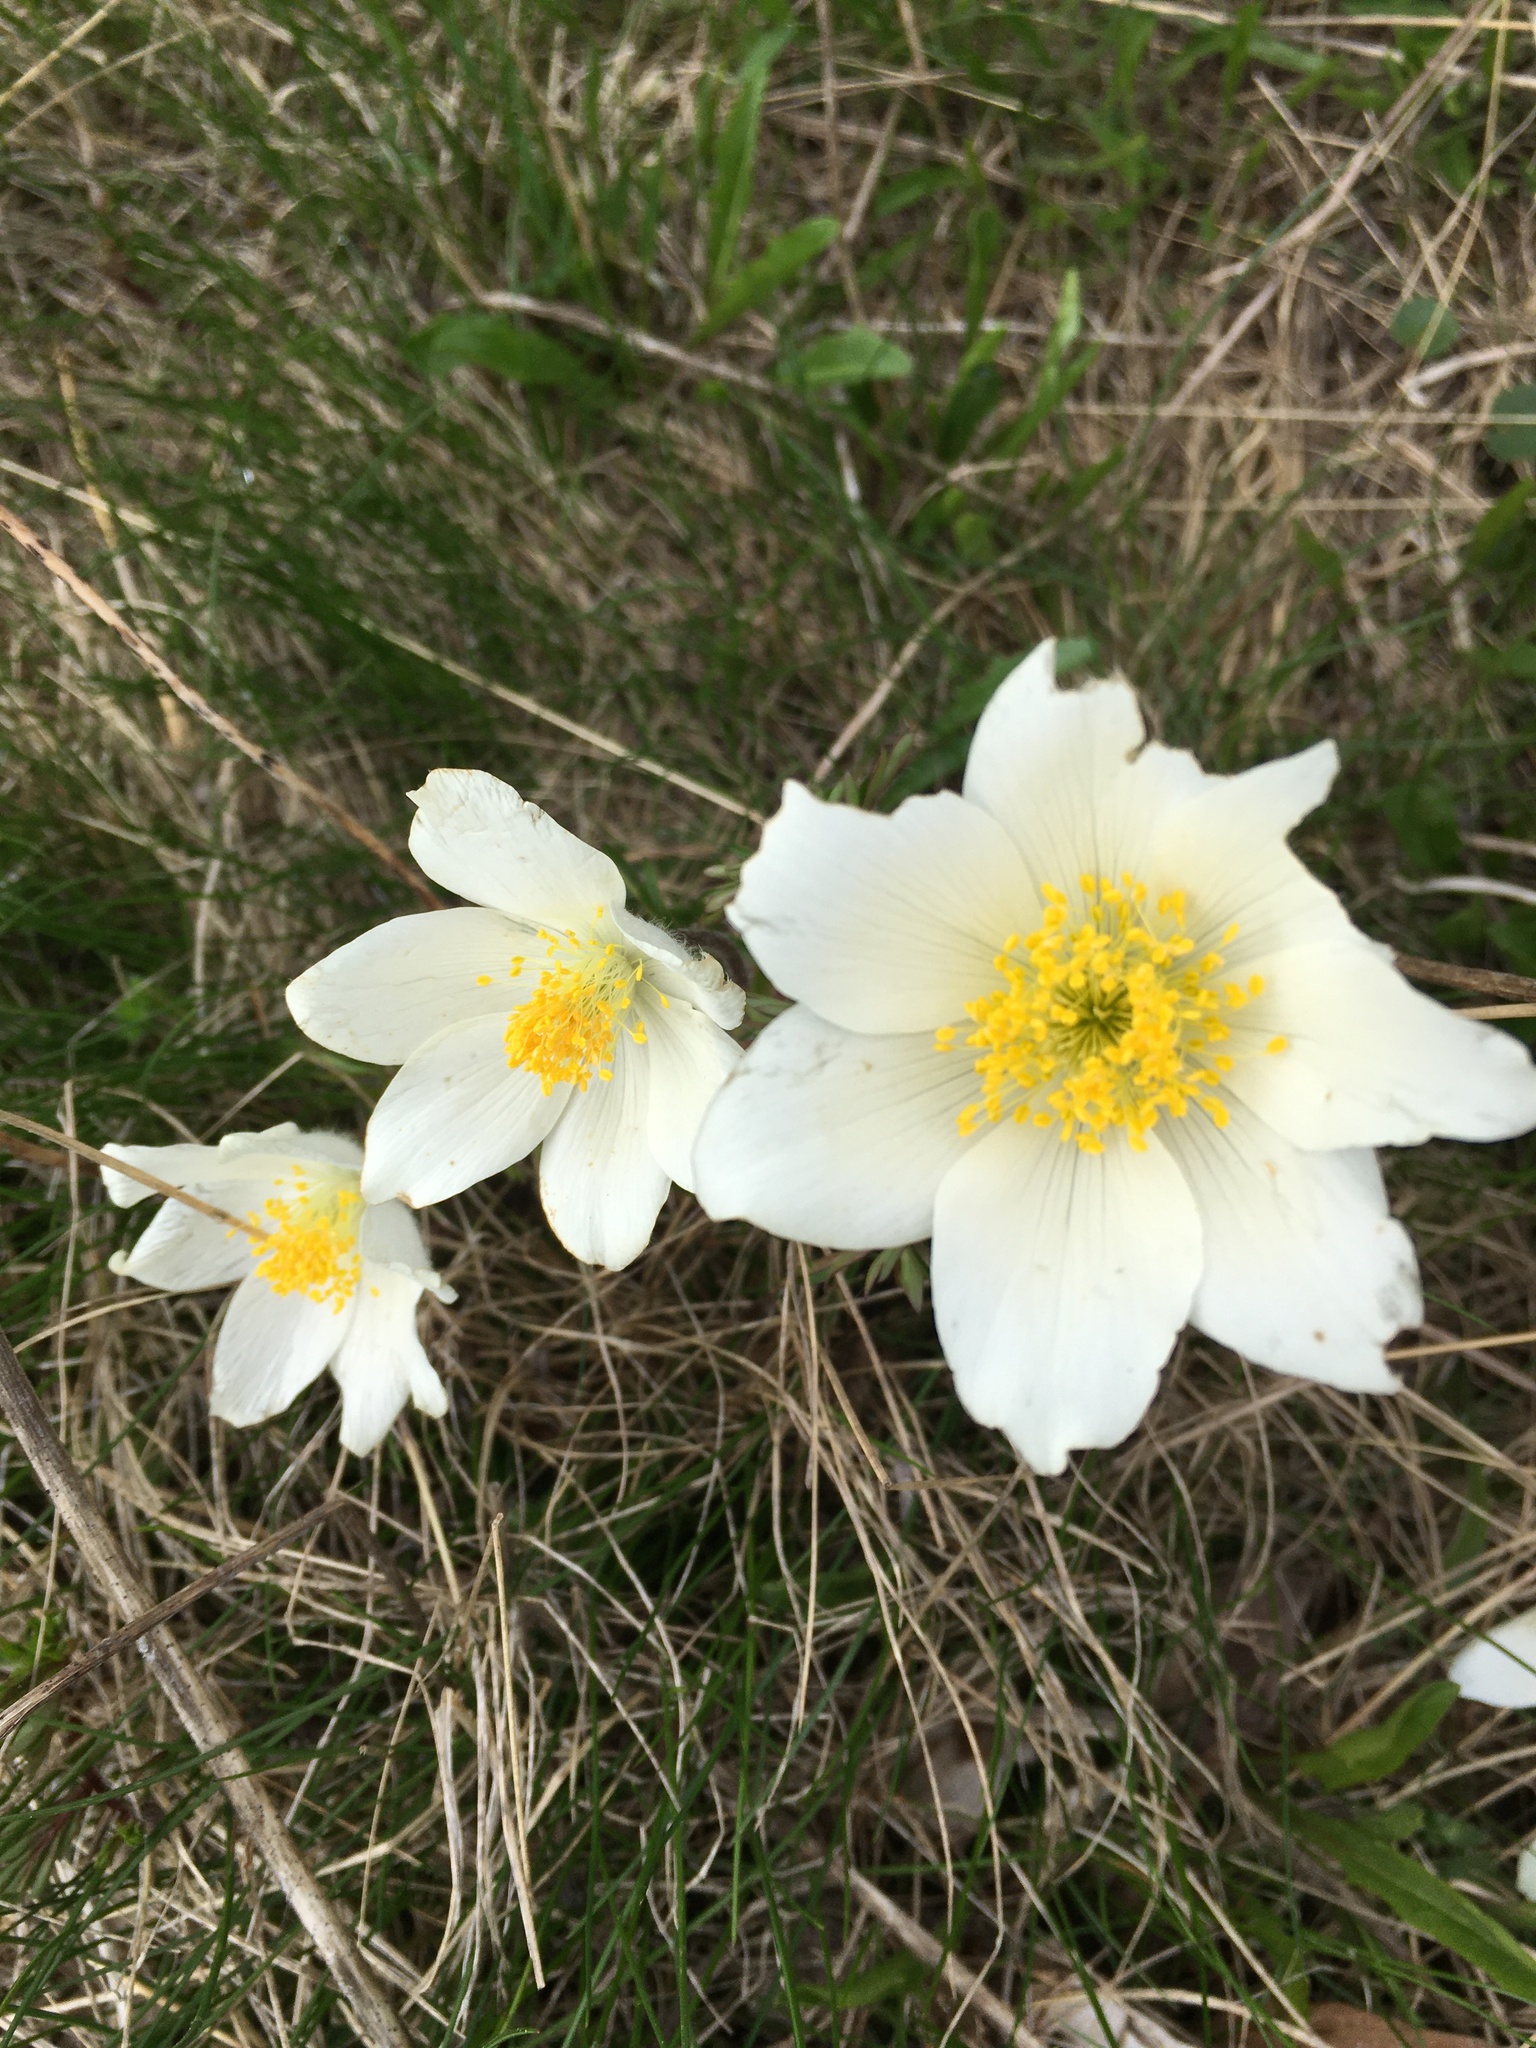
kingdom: Plantae
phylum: Tracheophyta
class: Magnoliopsida
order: Ranunculales
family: Ranunculaceae
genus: Pulsatilla
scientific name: Pulsatilla alpina
